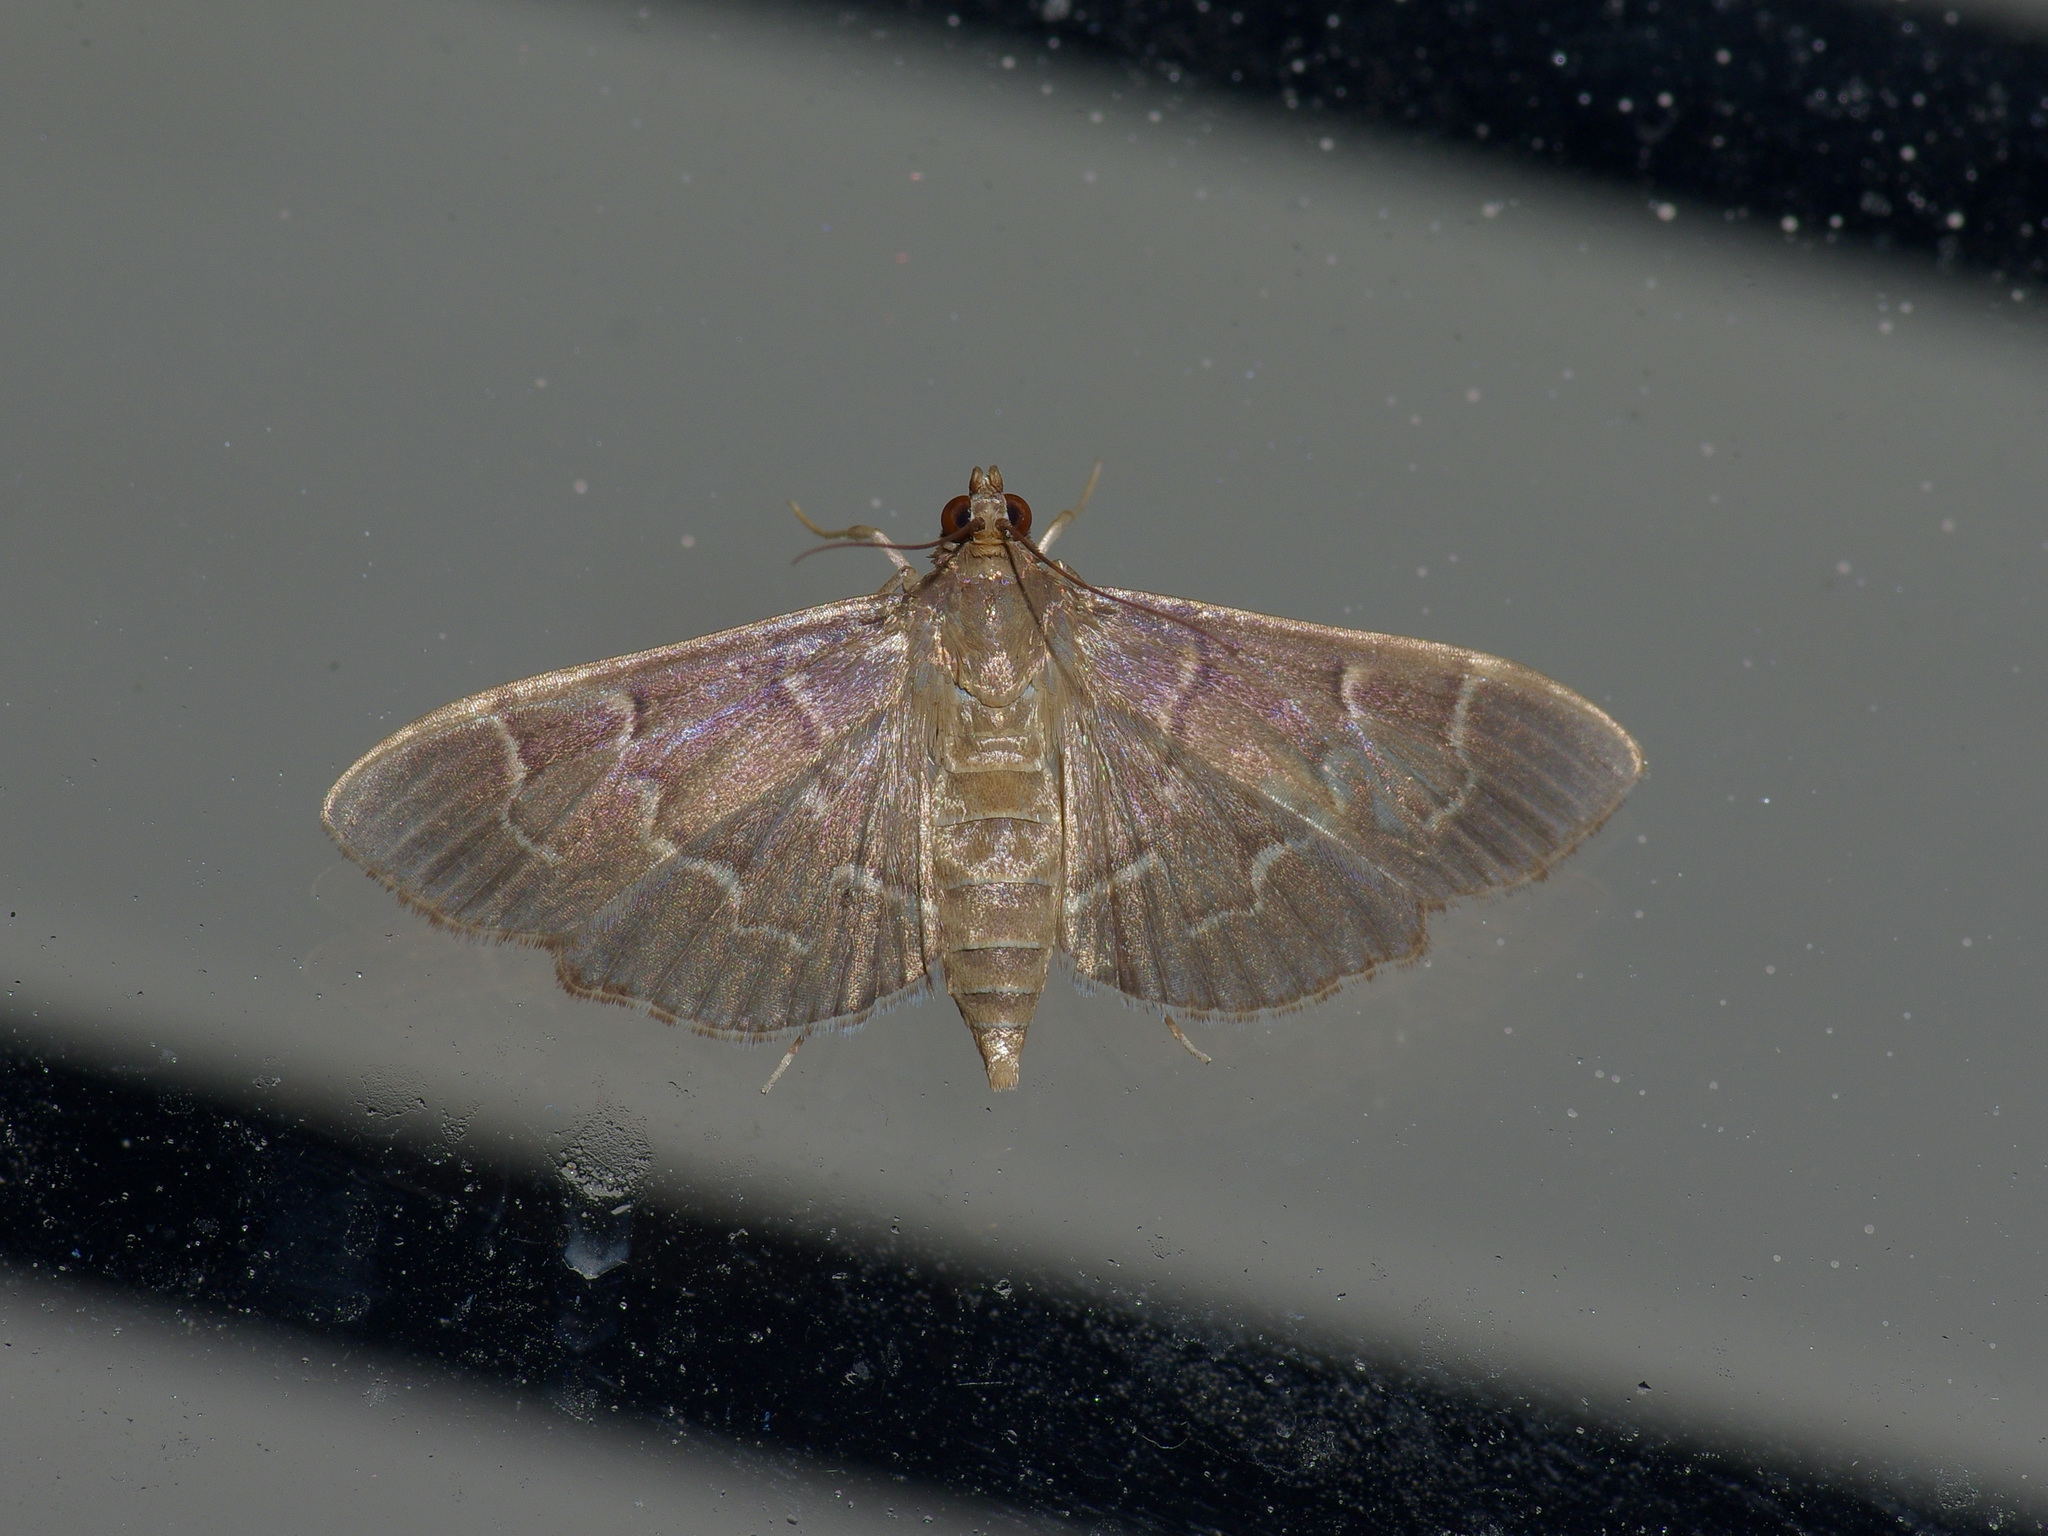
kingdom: Animalia
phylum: Arthropoda
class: Insecta
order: Lepidoptera
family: Crambidae
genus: Pilocrocis
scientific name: Pilocrocis ramentalis
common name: Scraped pilocrocis
